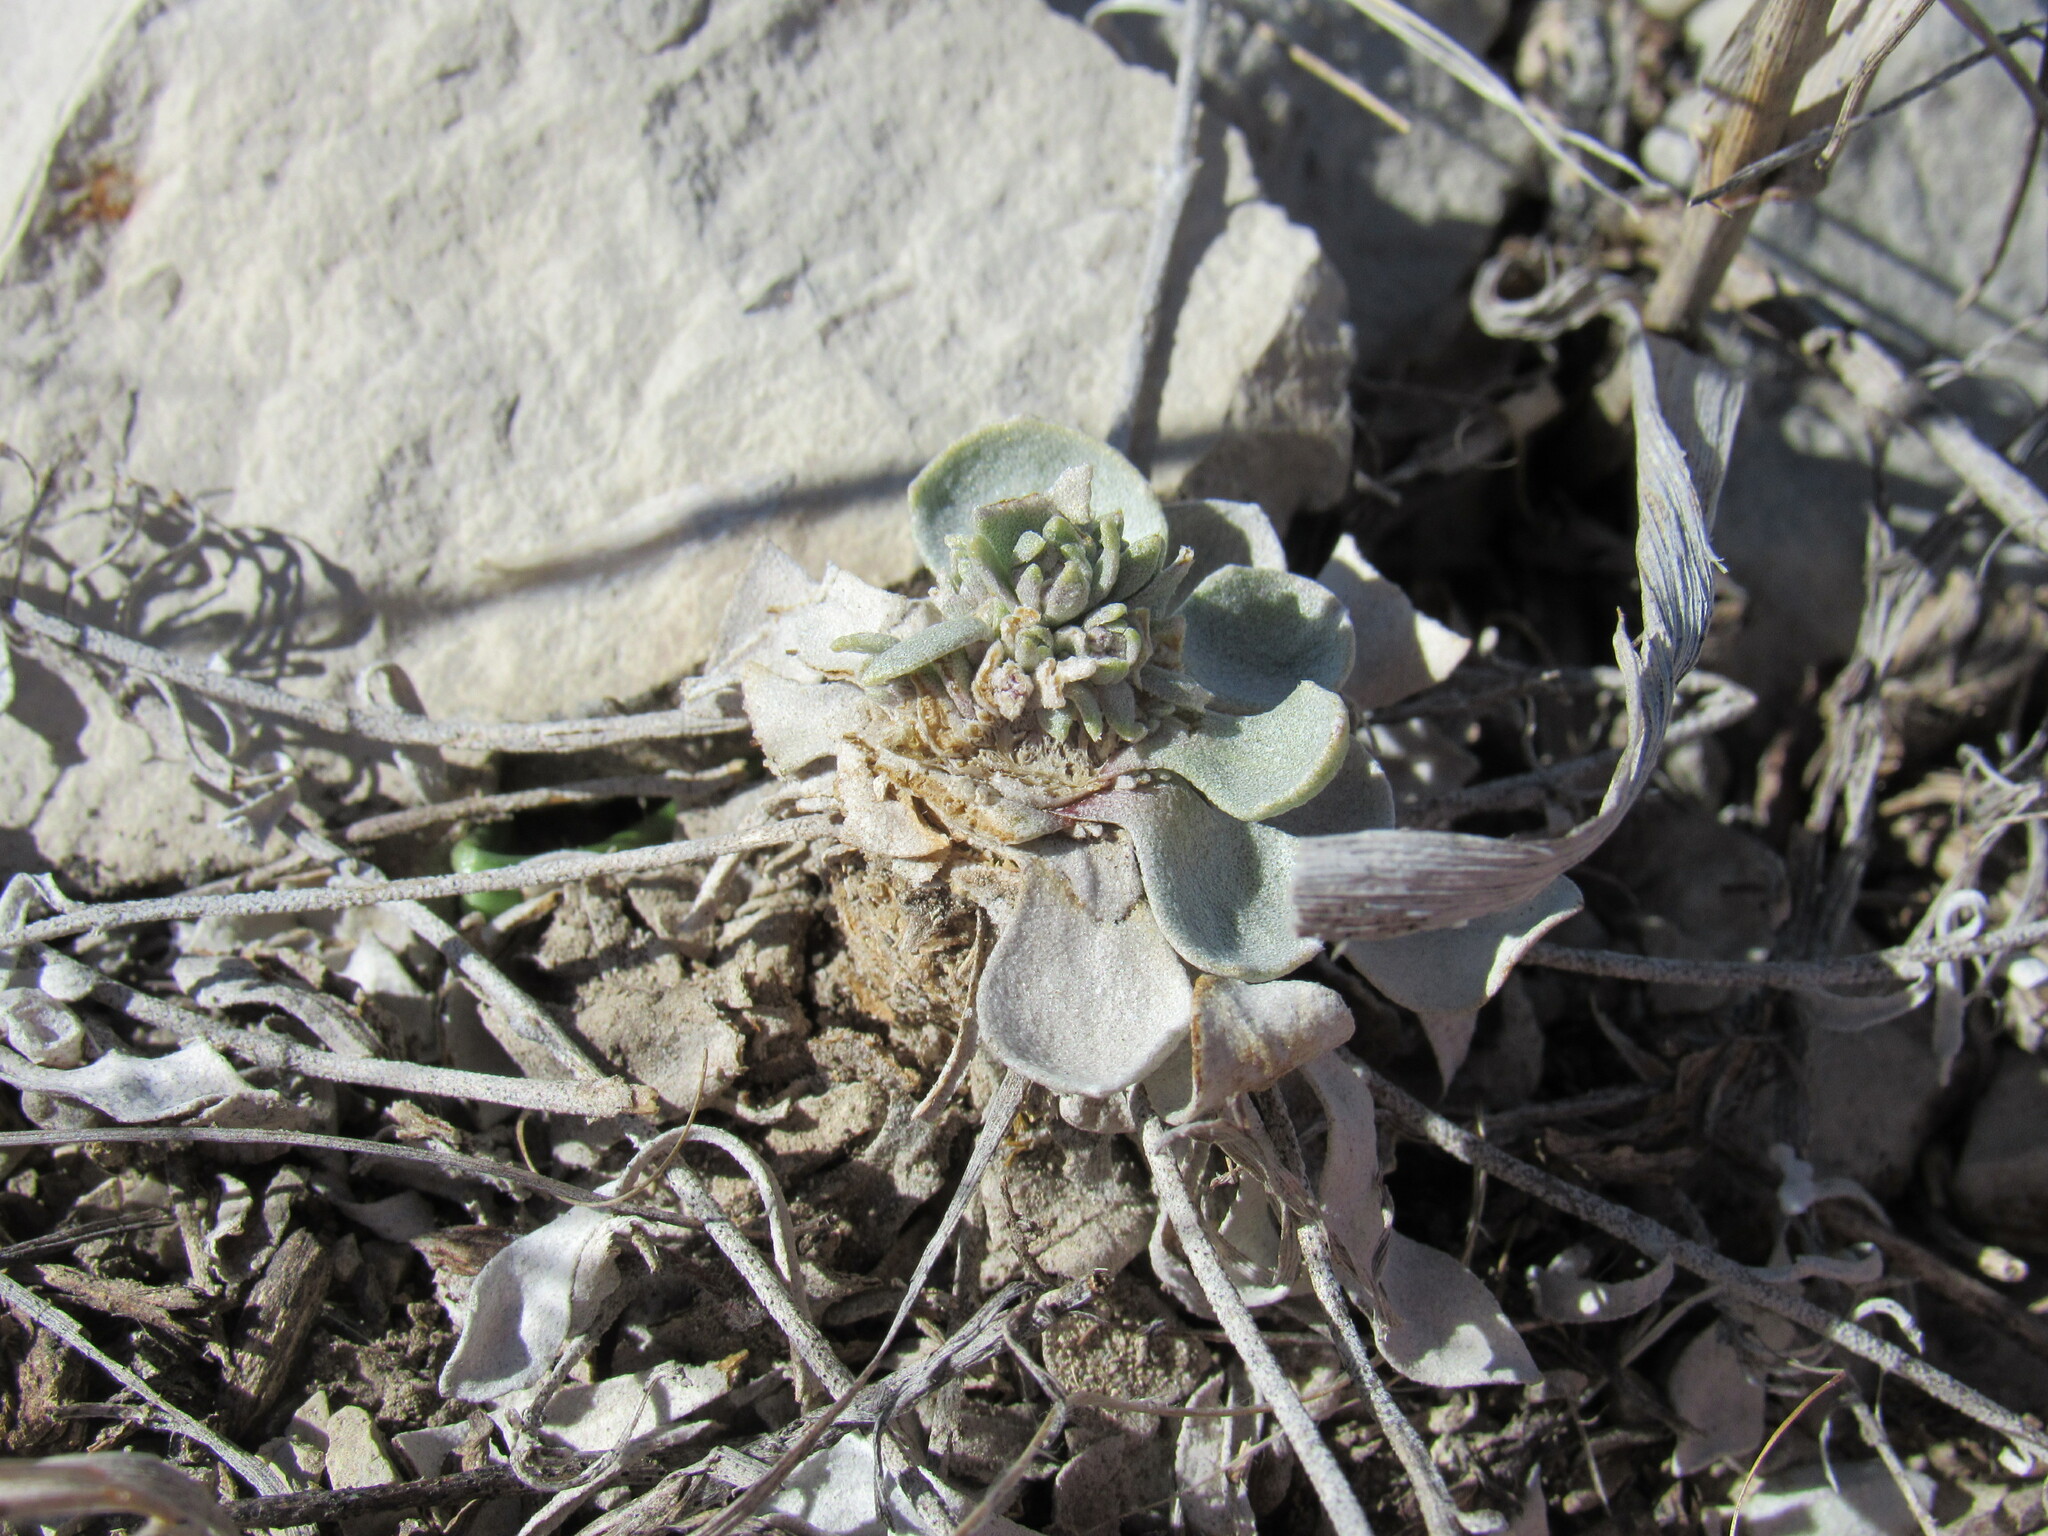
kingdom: Plantae
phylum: Tracheophyta
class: Magnoliopsida
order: Brassicales
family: Brassicaceae
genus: Physaria
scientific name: Physaria bellii
